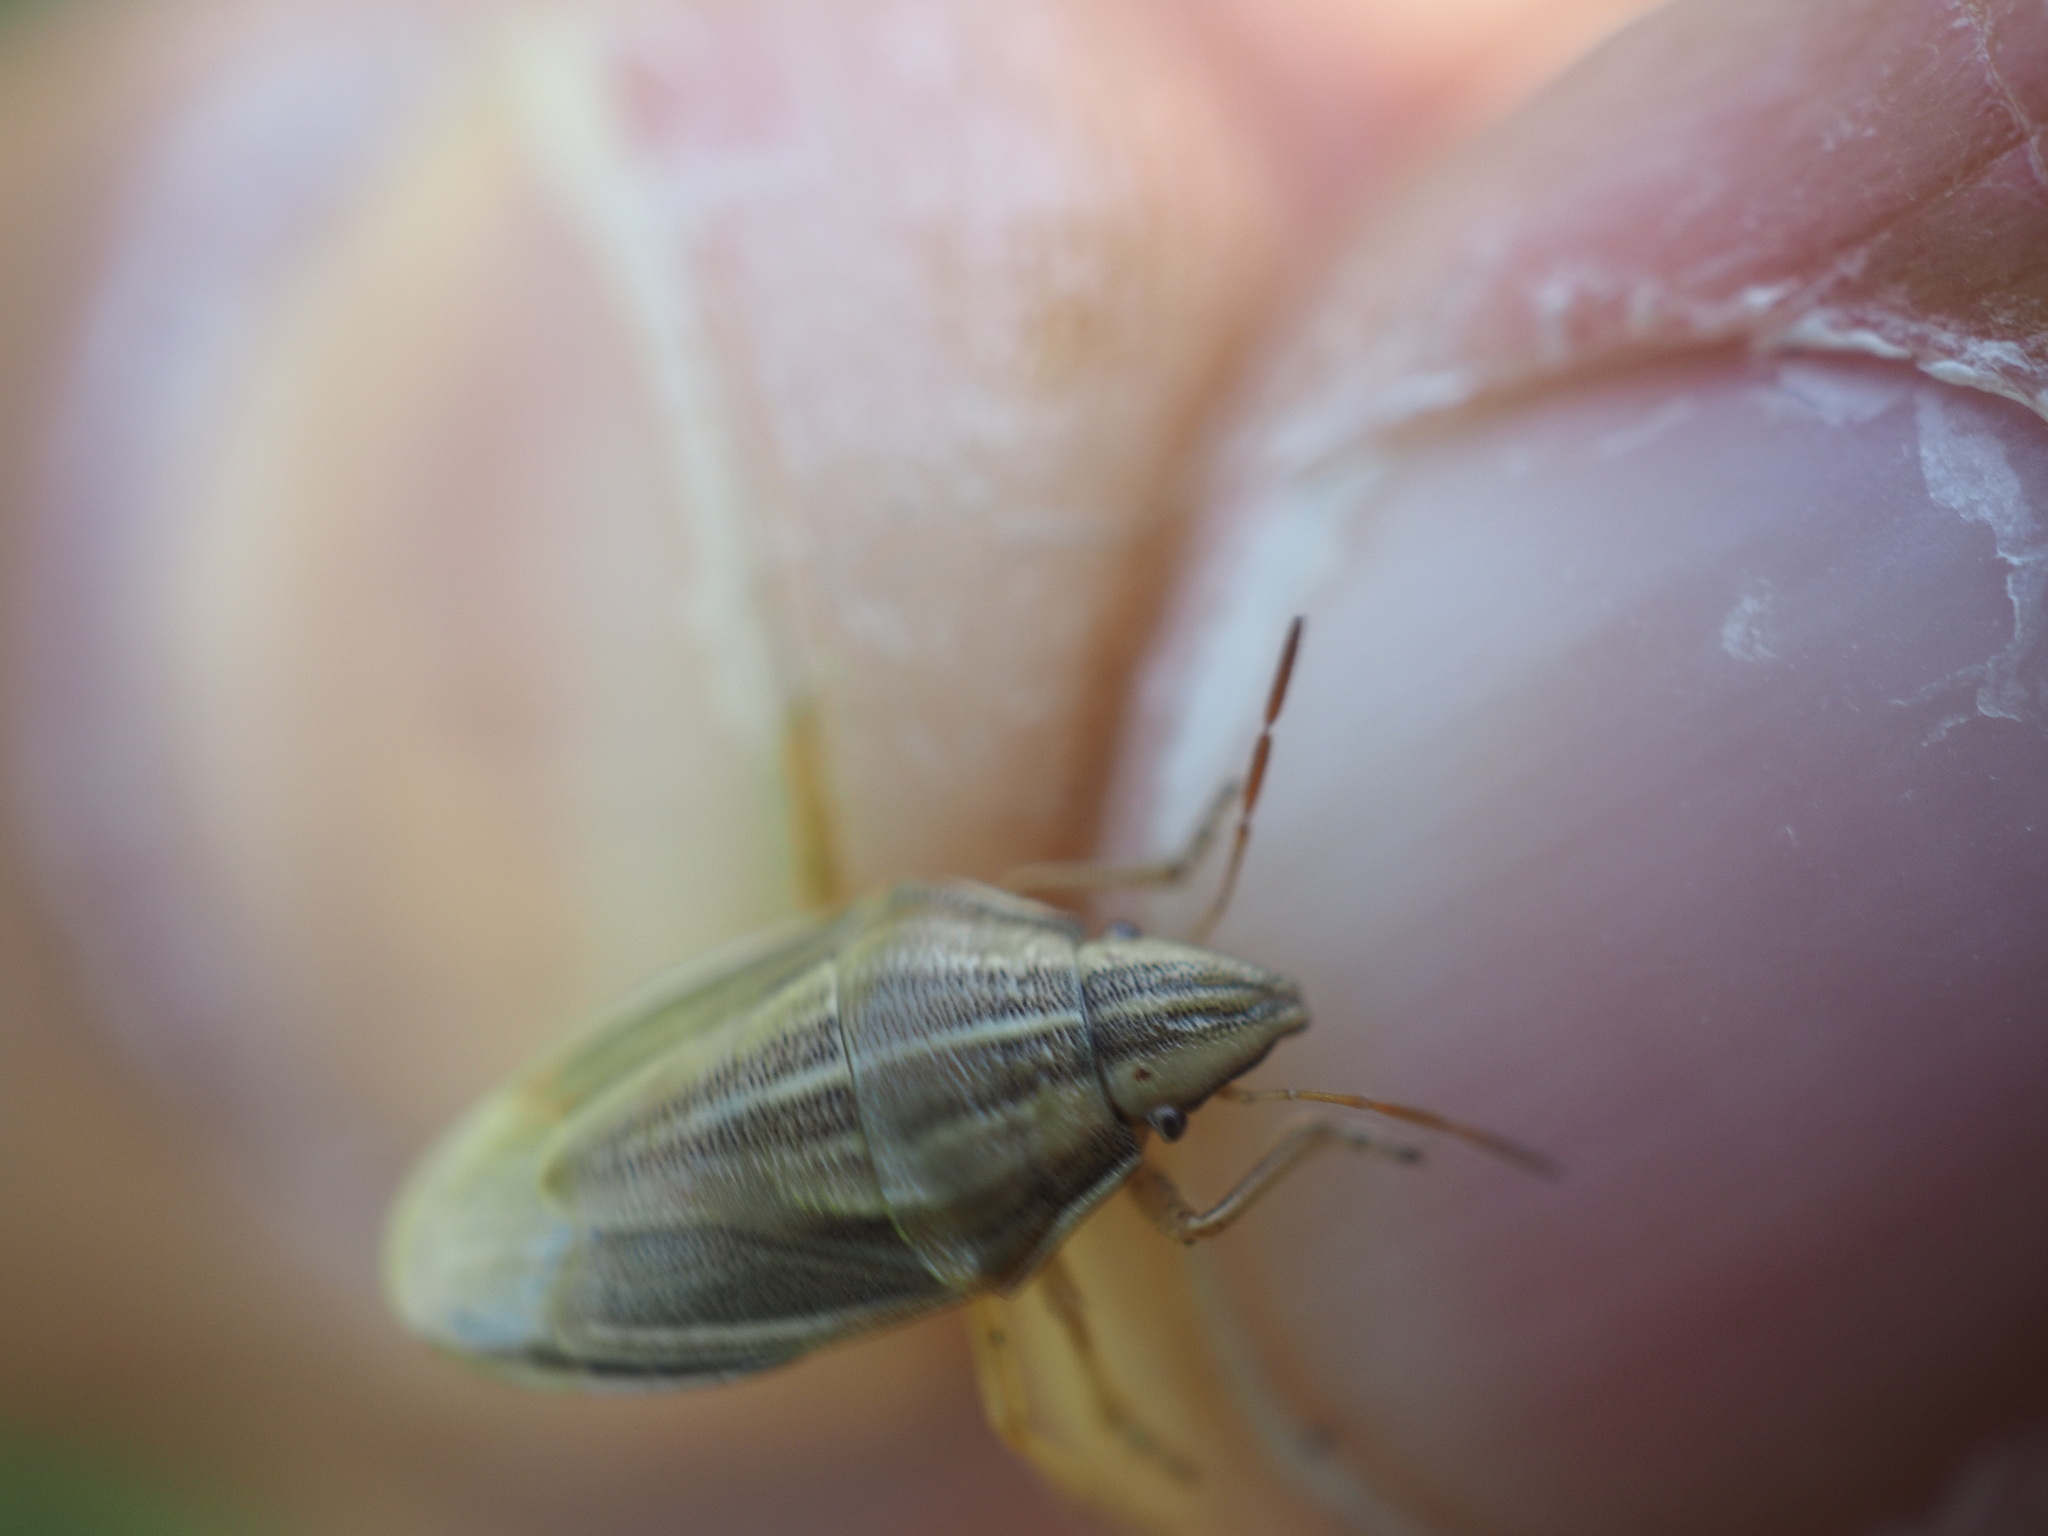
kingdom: Animalia
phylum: Arthropoda
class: Insecta
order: Hemiptera
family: Pentatomidae
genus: Aelia
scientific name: Aelia acuminata
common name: Bishop's mitre
